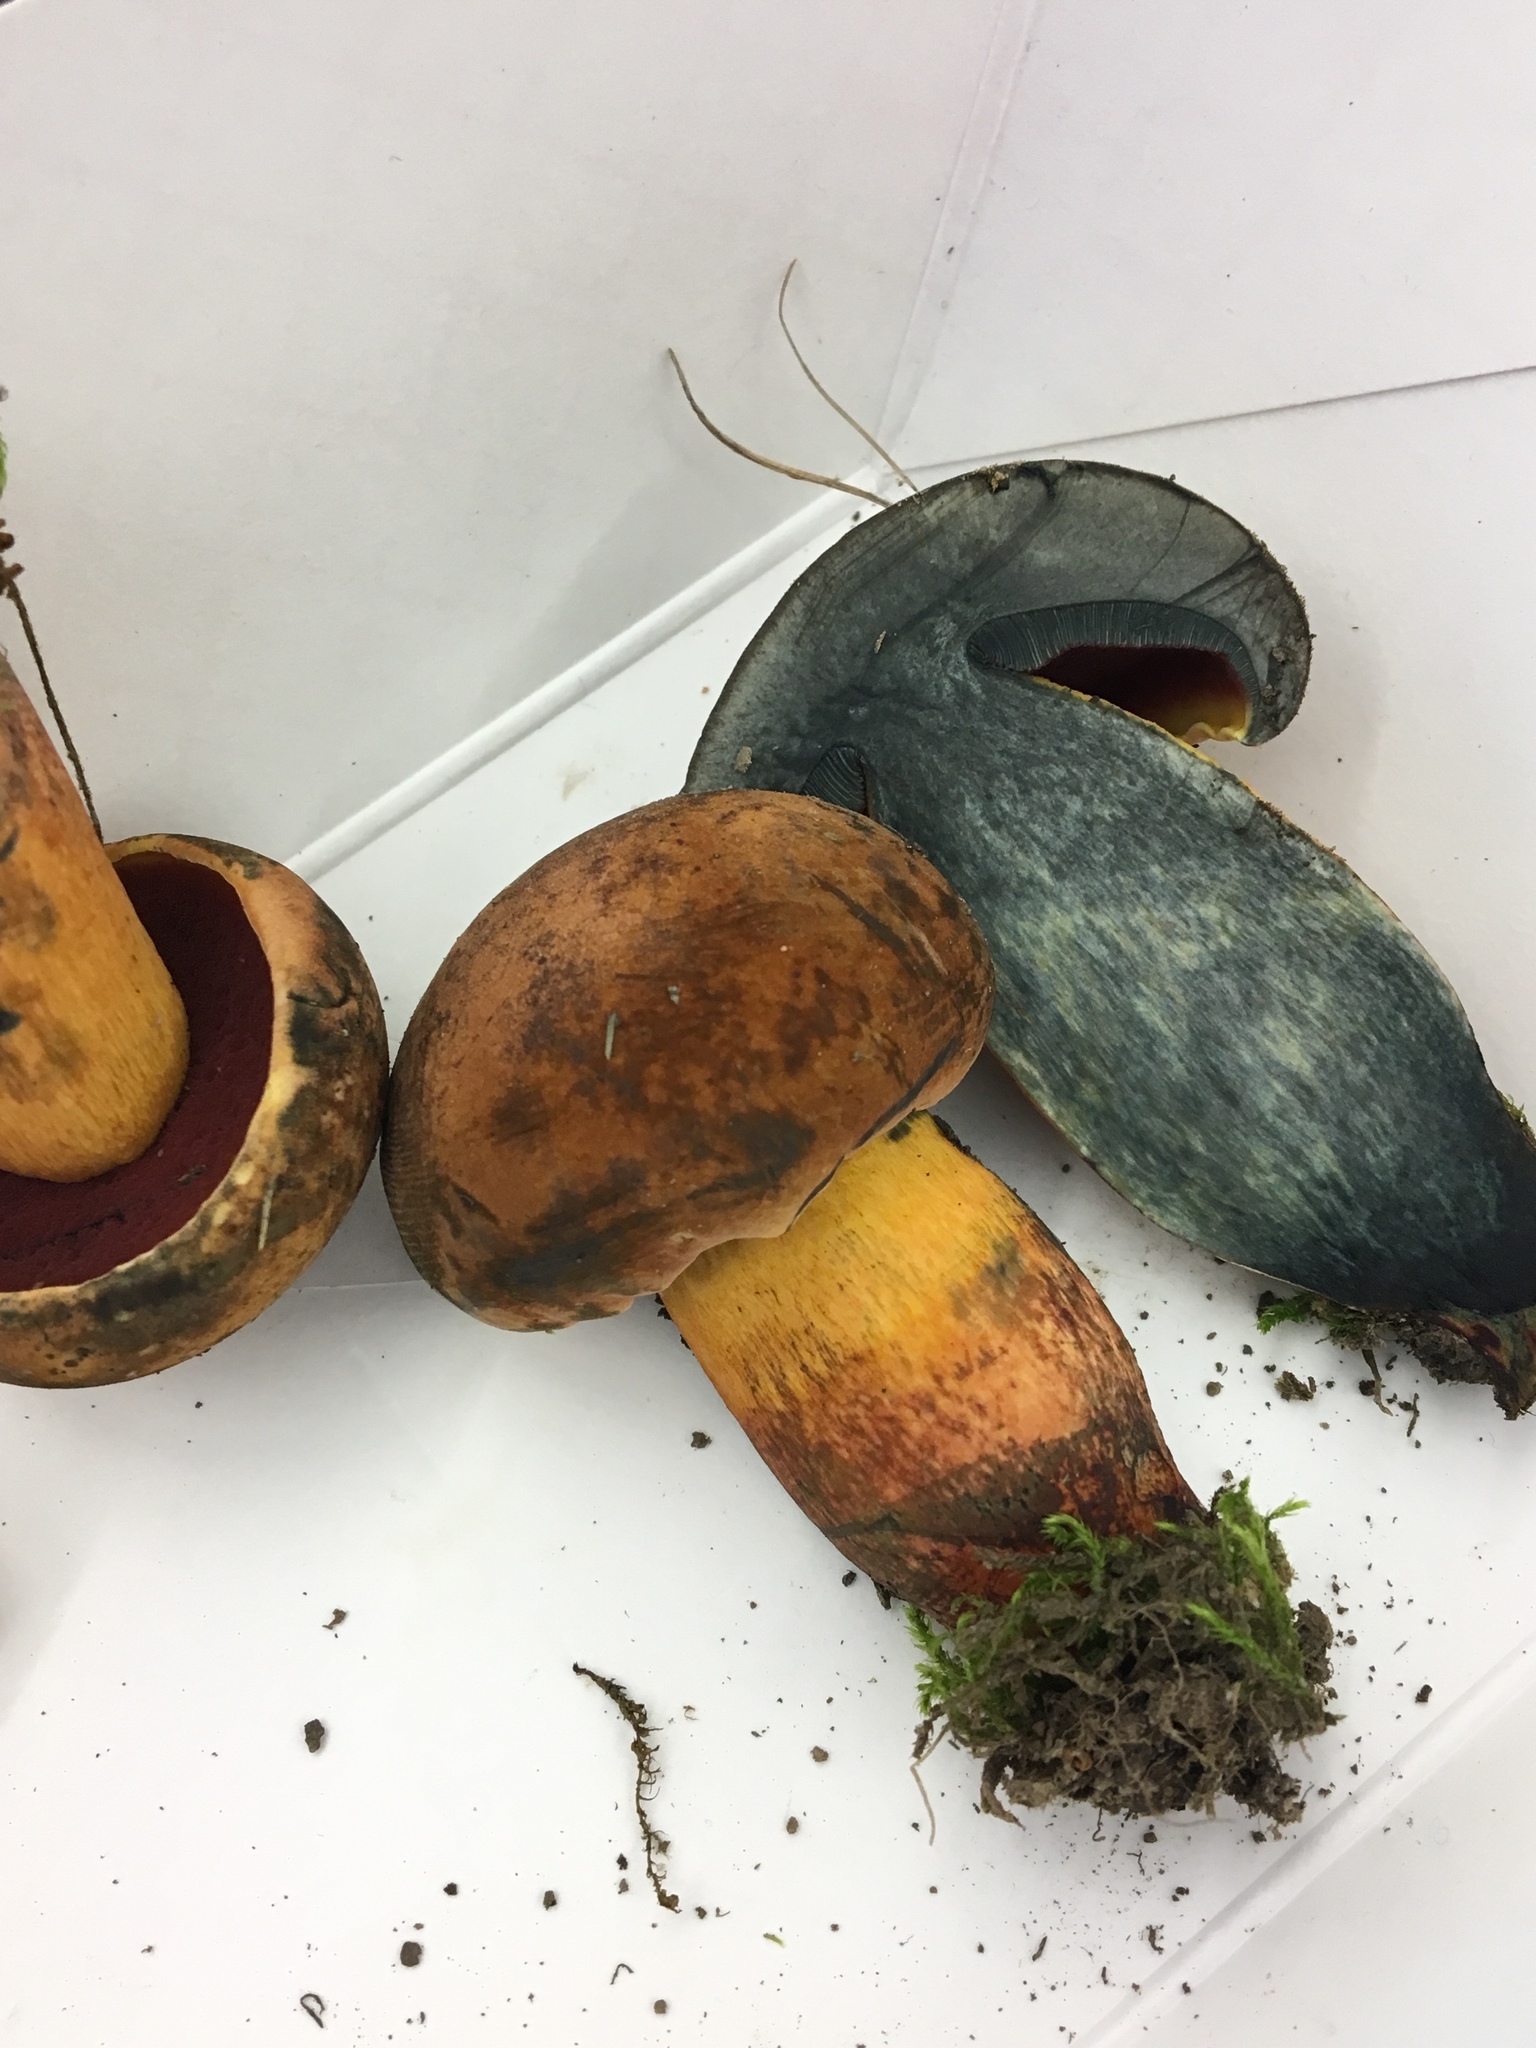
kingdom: Fungi
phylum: Basidiomycota
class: Agaricomycetes
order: Boletales
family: Boletaceae
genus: Boletus
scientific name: Boletus subvelutipes
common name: Red-mouth bolete
